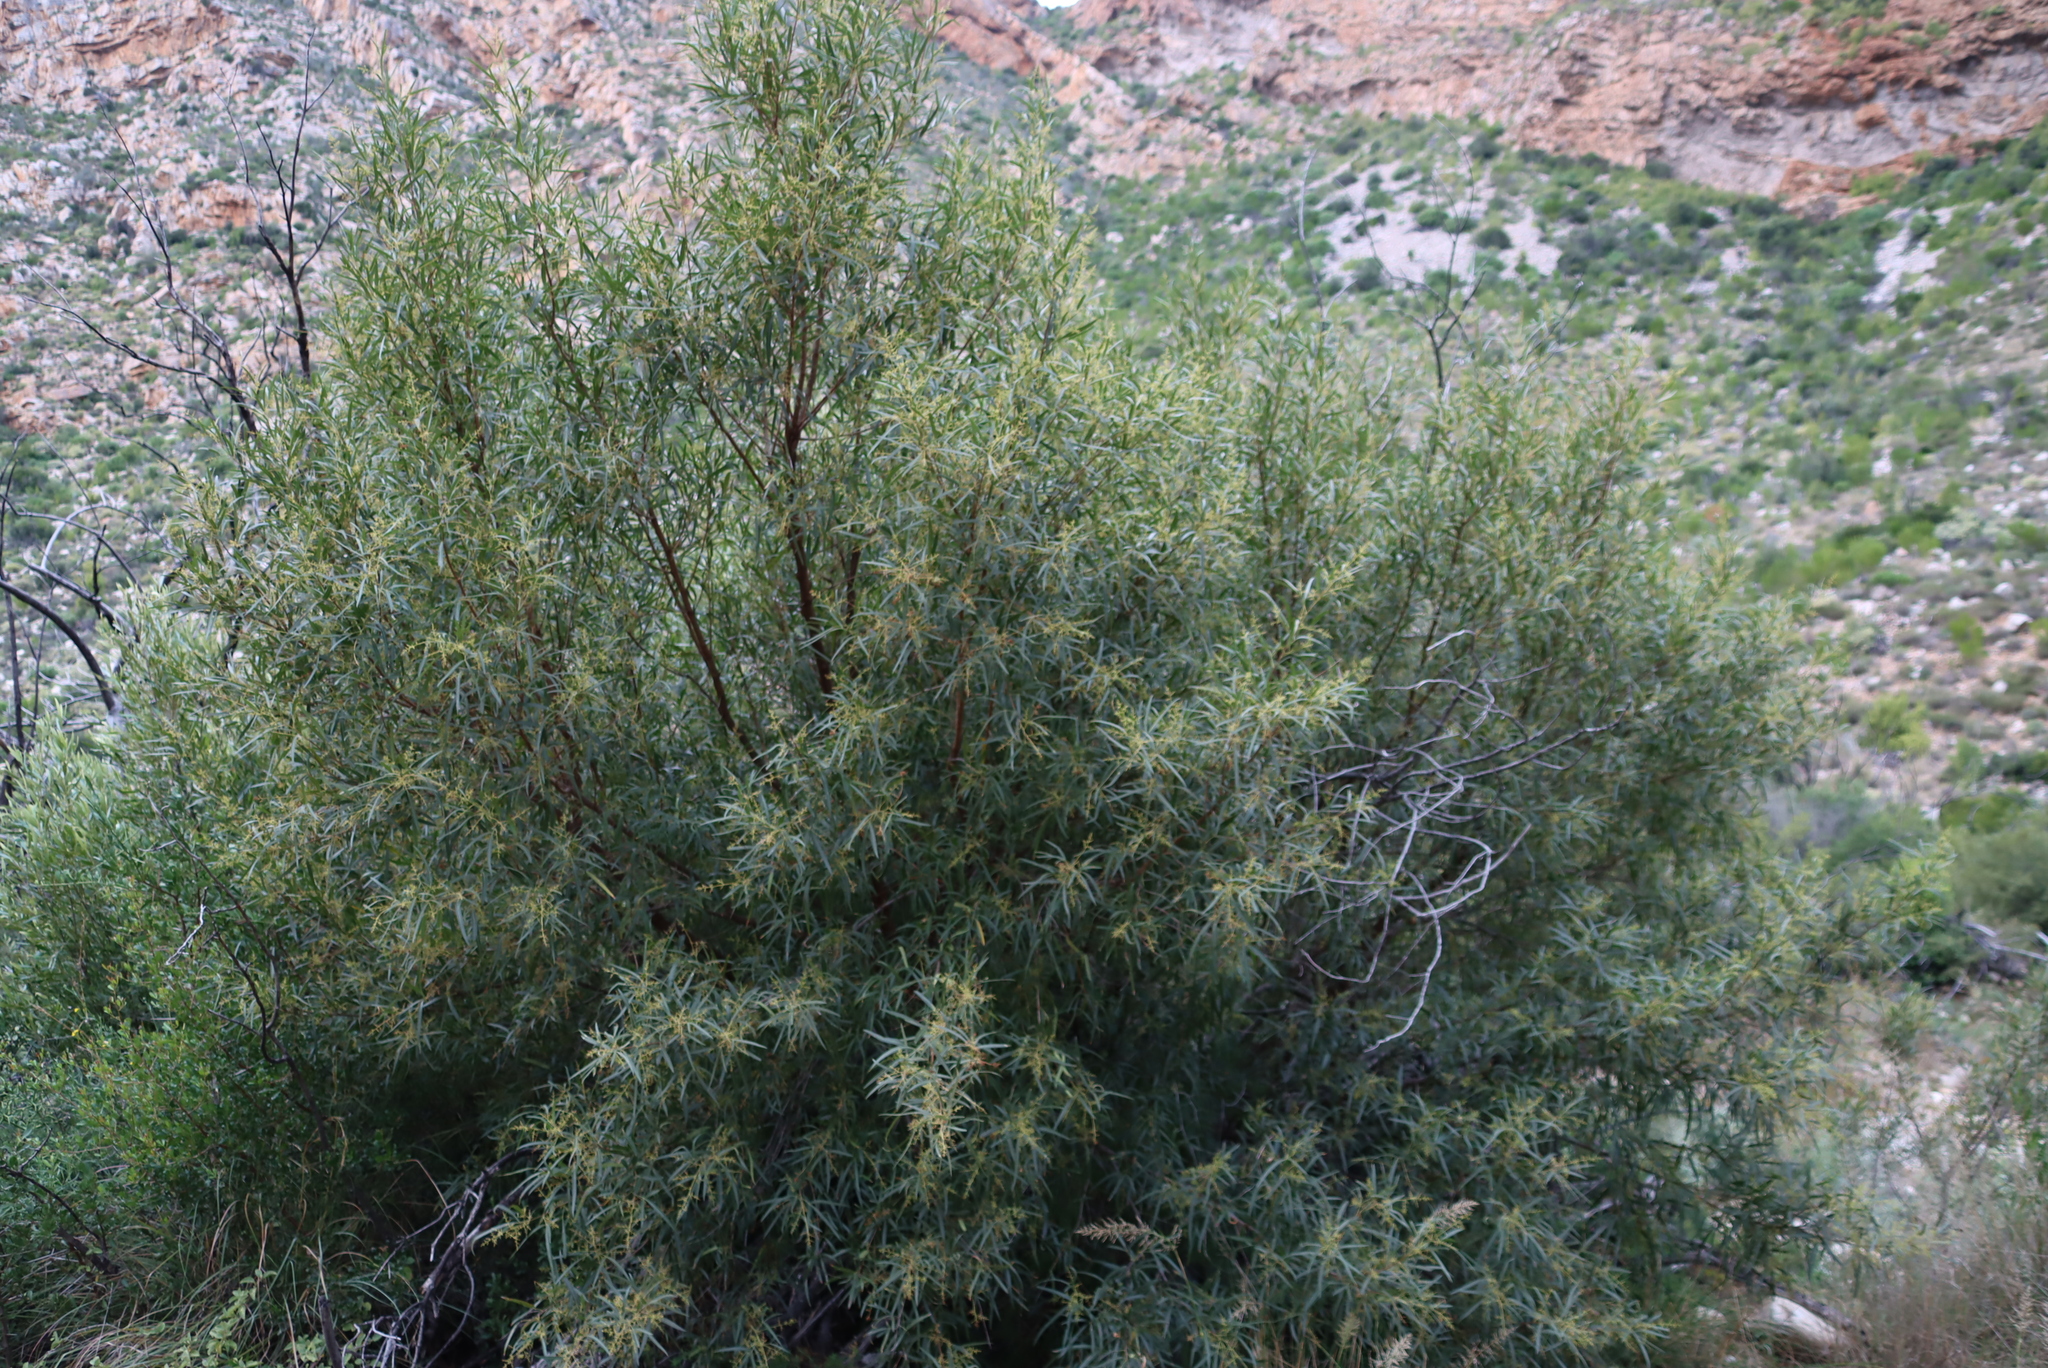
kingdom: Plantae
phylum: Tracheophyta
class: Magnoliopsida
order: Sapindales
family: Anacardiaceae
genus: Searsia
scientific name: Searsia lancea
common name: Cashew
